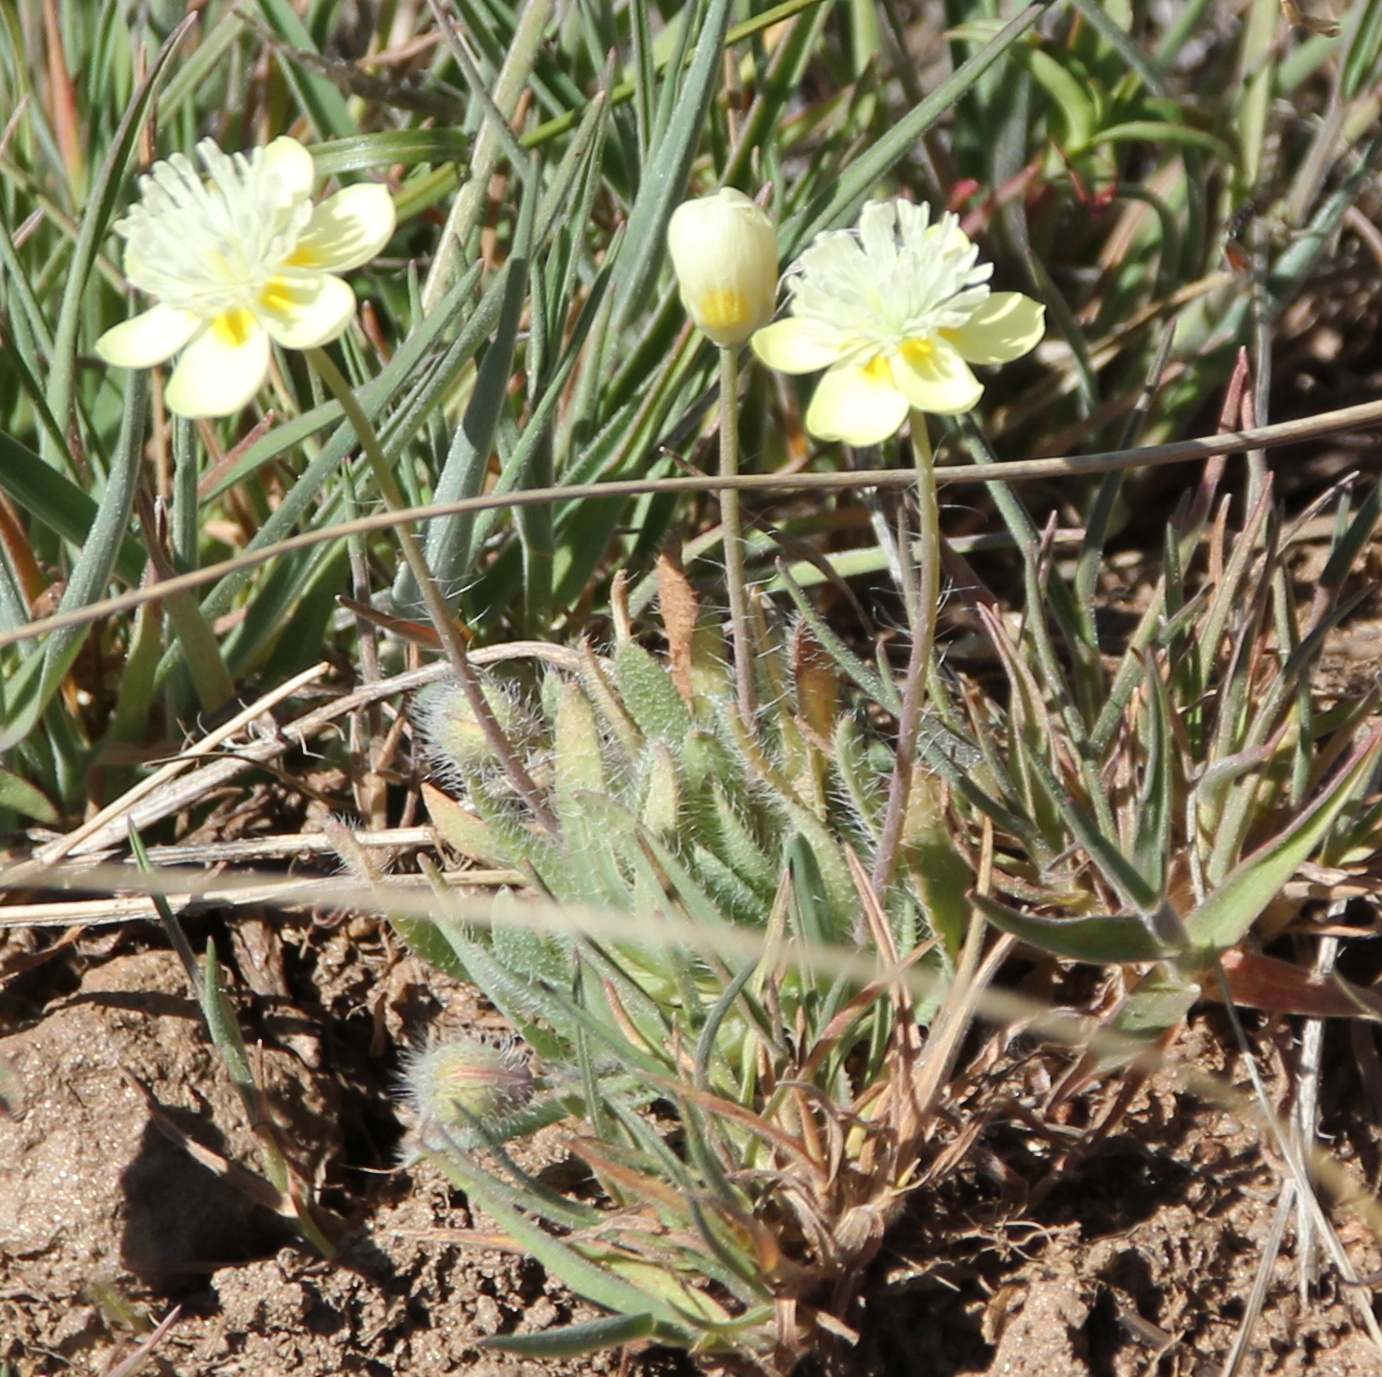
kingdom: Plantae
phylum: Tracheophyta
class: Magnoliopsida
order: Ranunculales
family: Papaveraceae
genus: Platystemon
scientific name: Platystemon californicus
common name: Cream-cups
